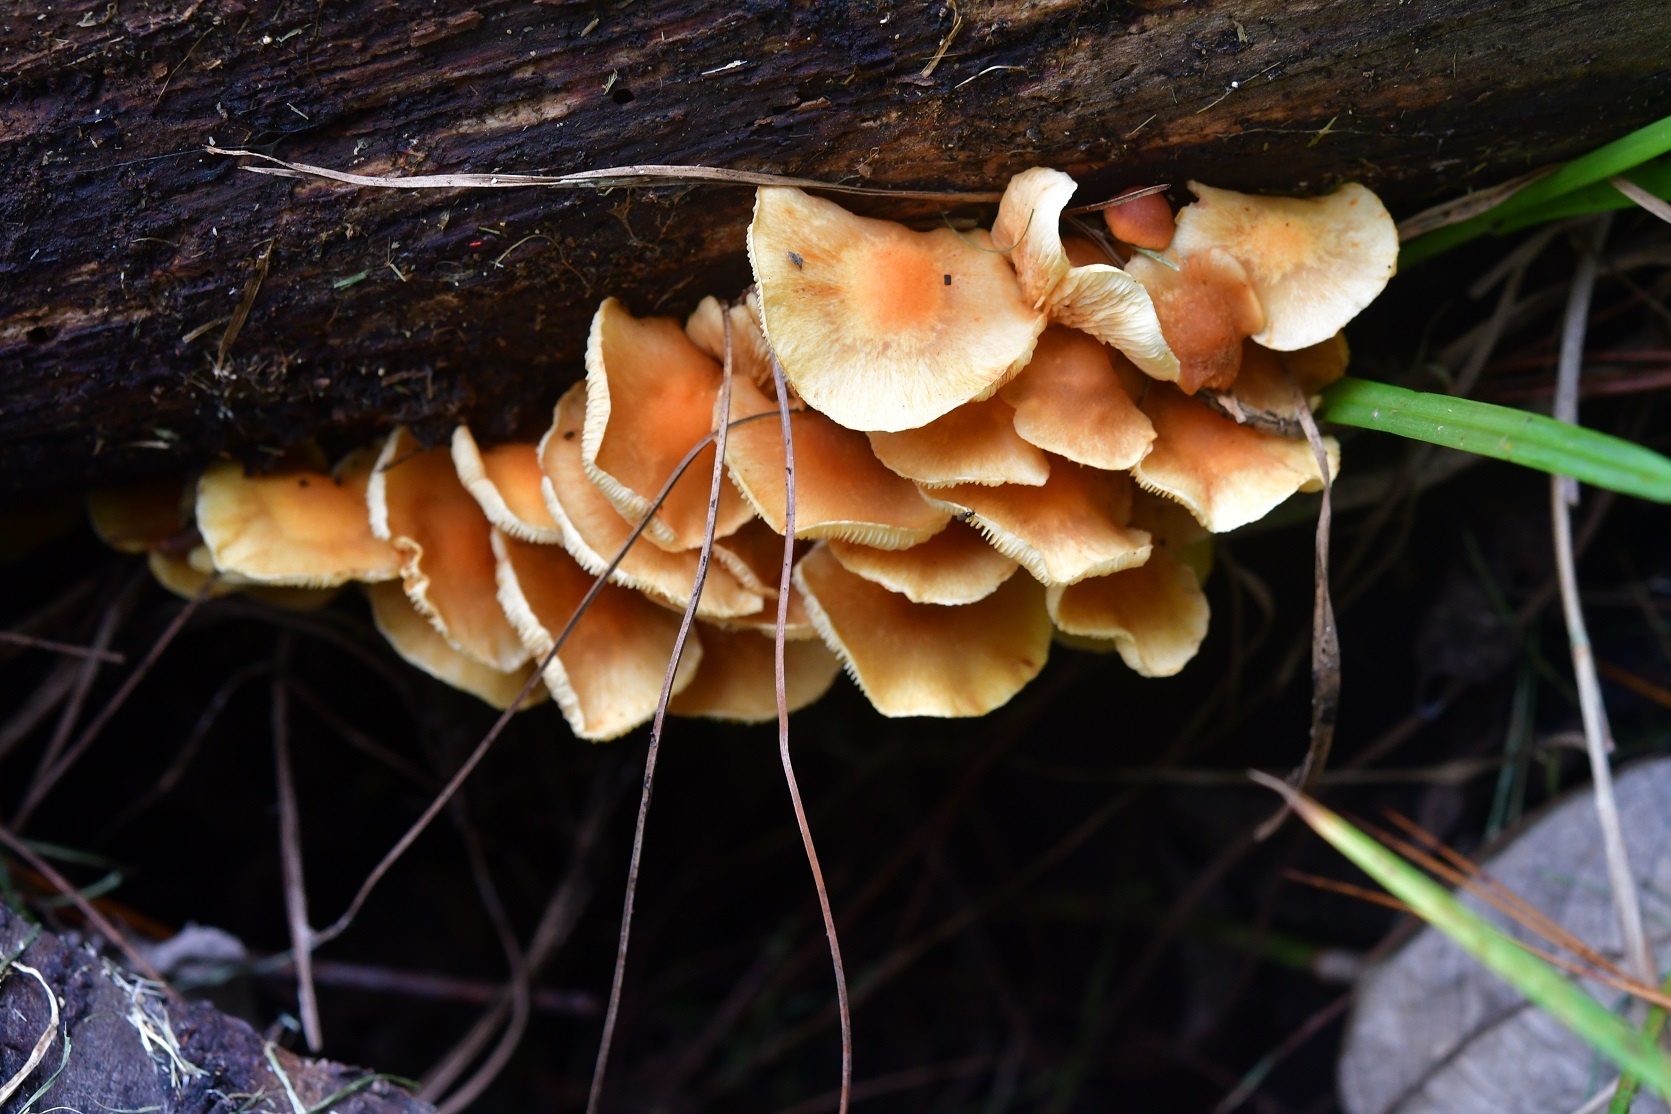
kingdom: Fungi
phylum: Basidiomycota
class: Agaricomycetes
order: Agaricales
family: Physalacriaceae
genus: Desarmillaria
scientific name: Desarmillaria caespitosa
